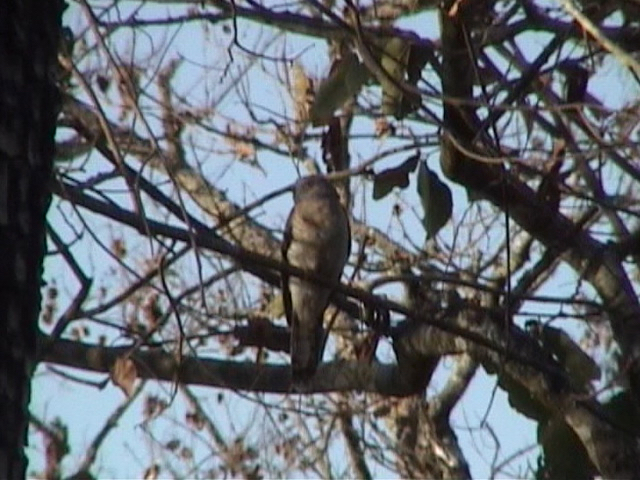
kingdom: Animalia
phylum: Chordata
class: Aves
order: Cuculiformes
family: Cuculidae
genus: Cuculus
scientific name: Cuculus varius
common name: Common hawk cuckoo
